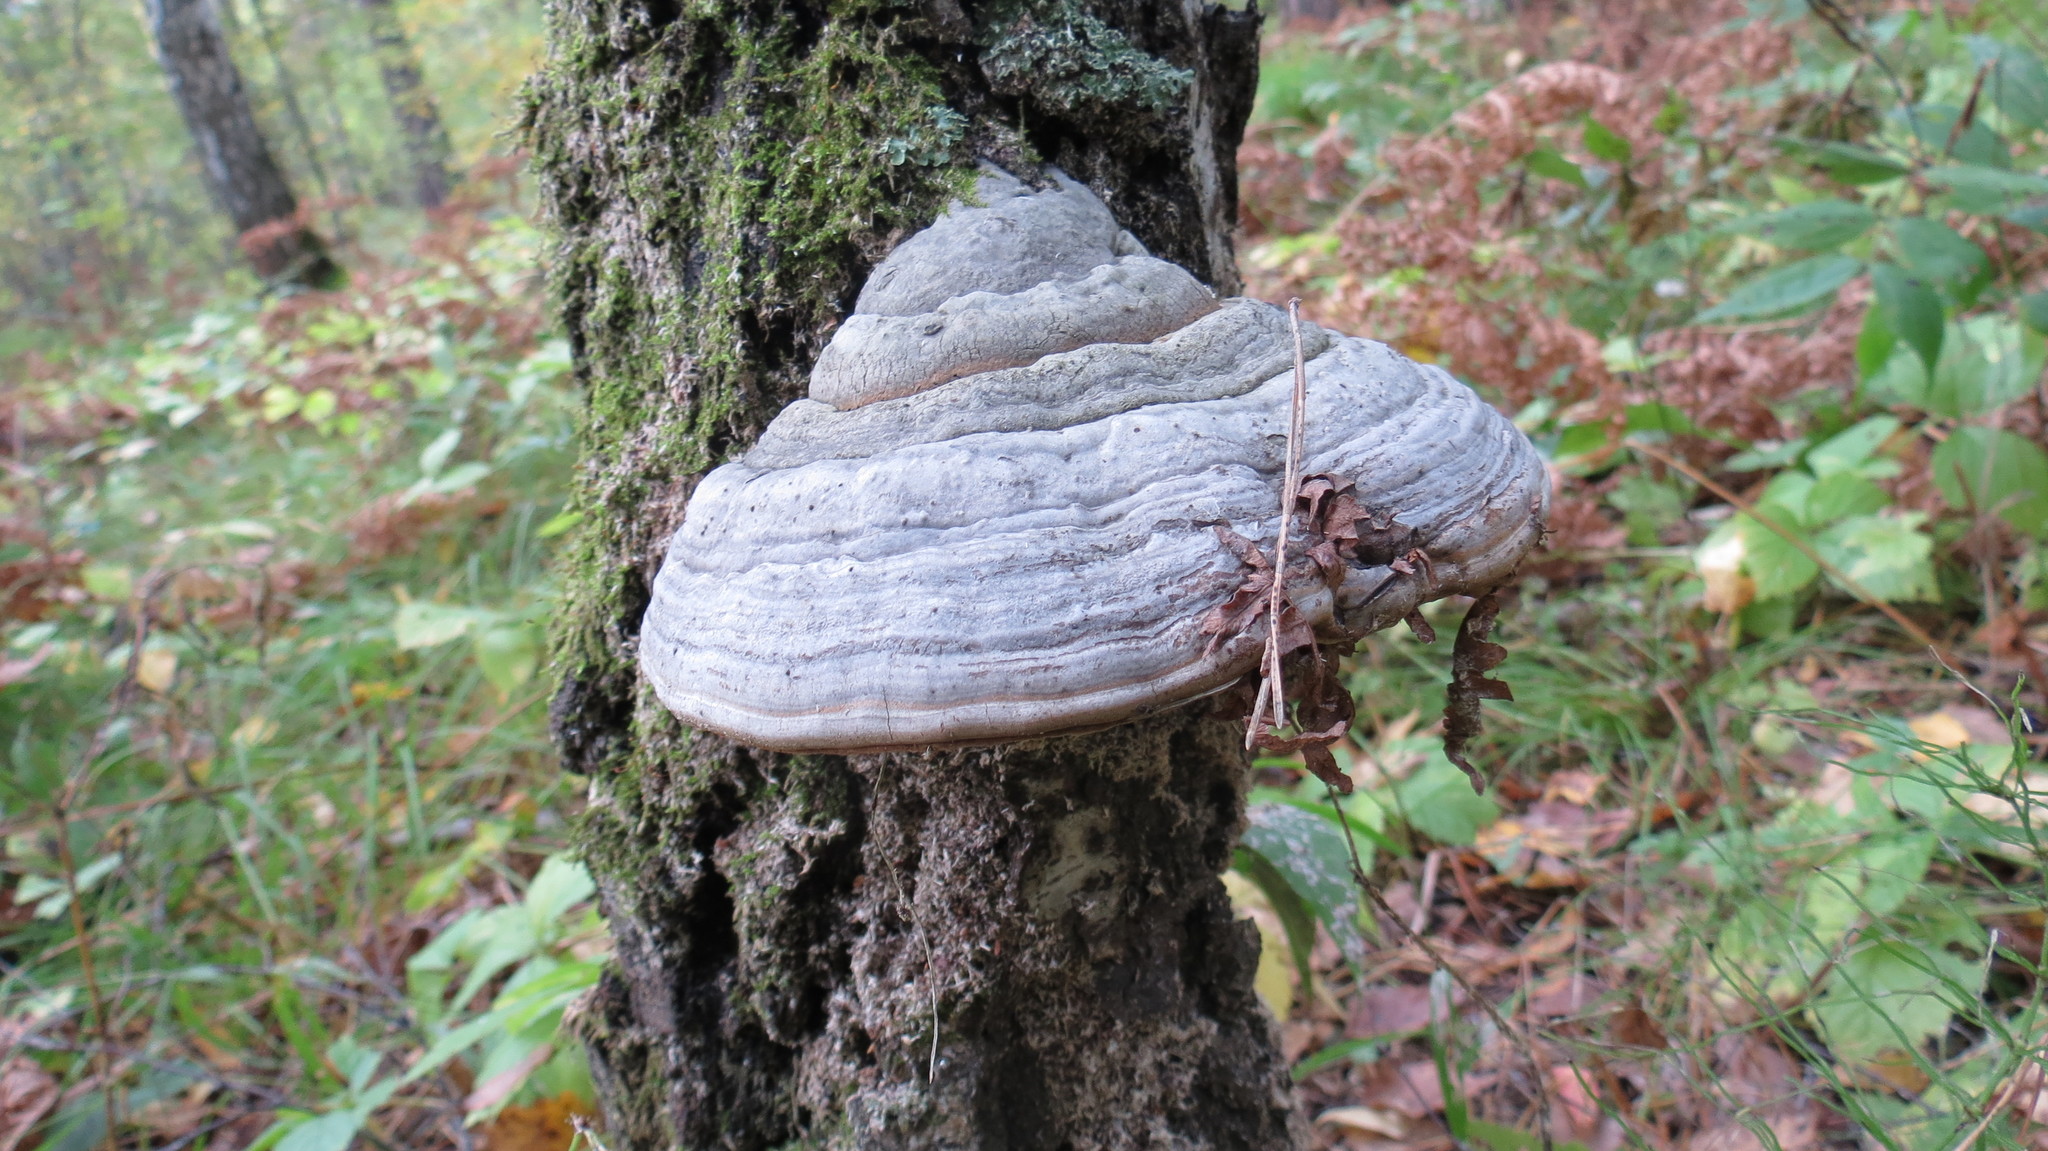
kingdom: Fungi
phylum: Basidiomycota
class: Agaricomycetes
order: Polyporales
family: Polyporaceae
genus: Fomes
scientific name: Fomes fomentarius
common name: Hoof fungus
